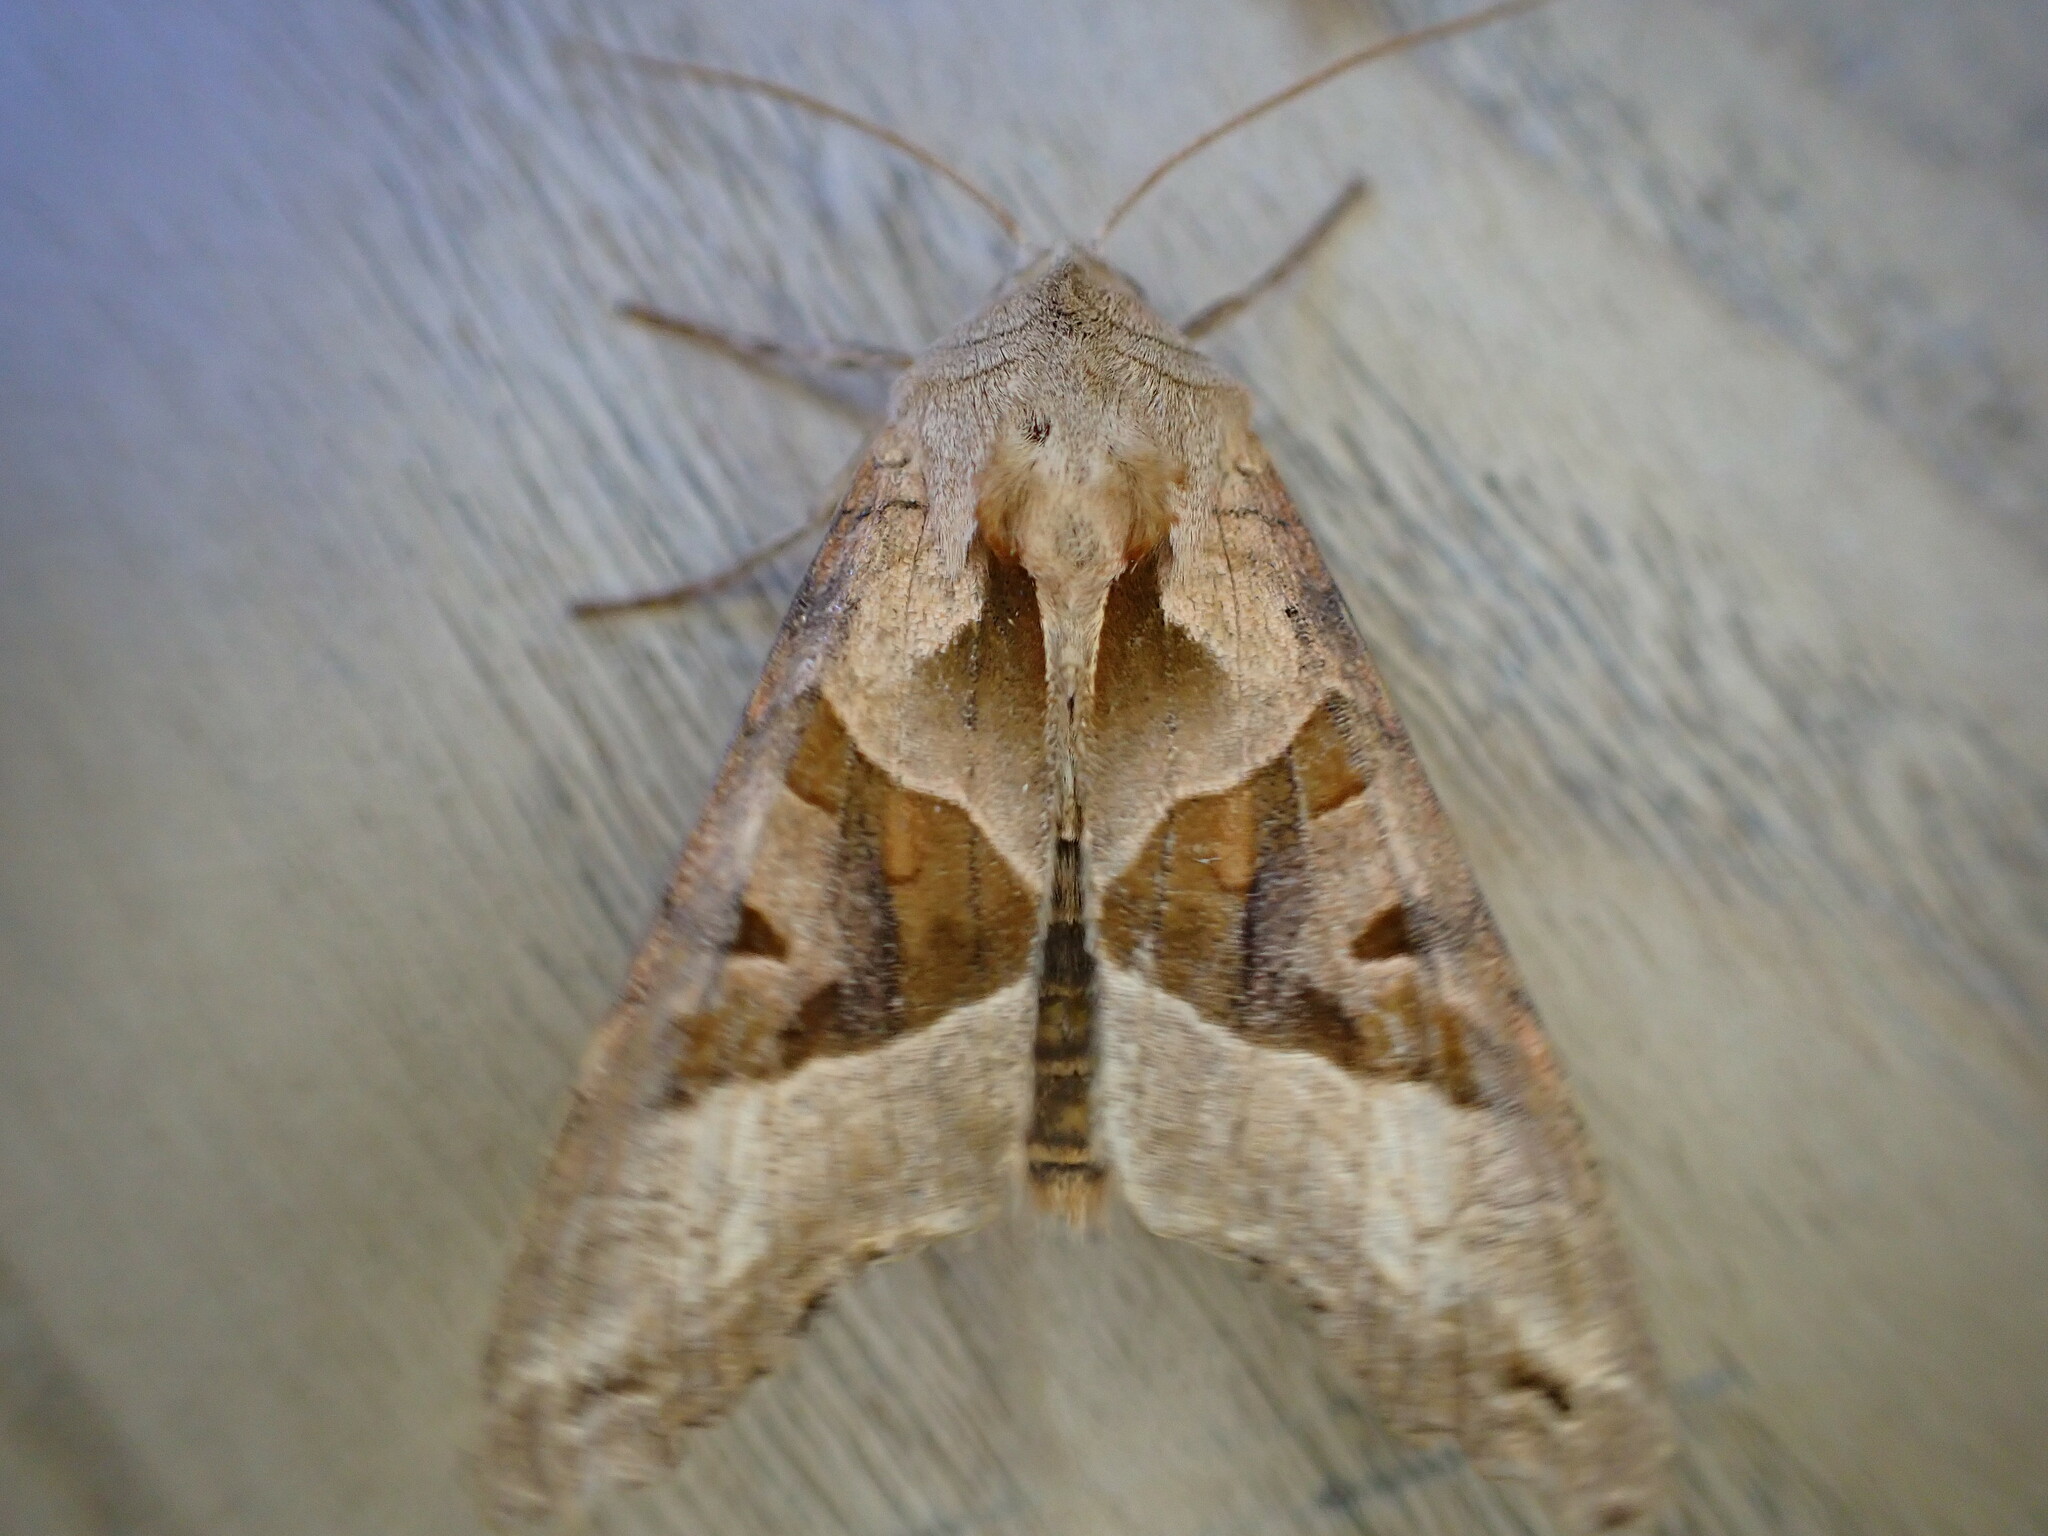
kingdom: Animalia
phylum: Arthropoda
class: Insecta
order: Lepidoptera
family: Noctuidae
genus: Phlogophora
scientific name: Phlogophora meticulosa
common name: Angle shades
